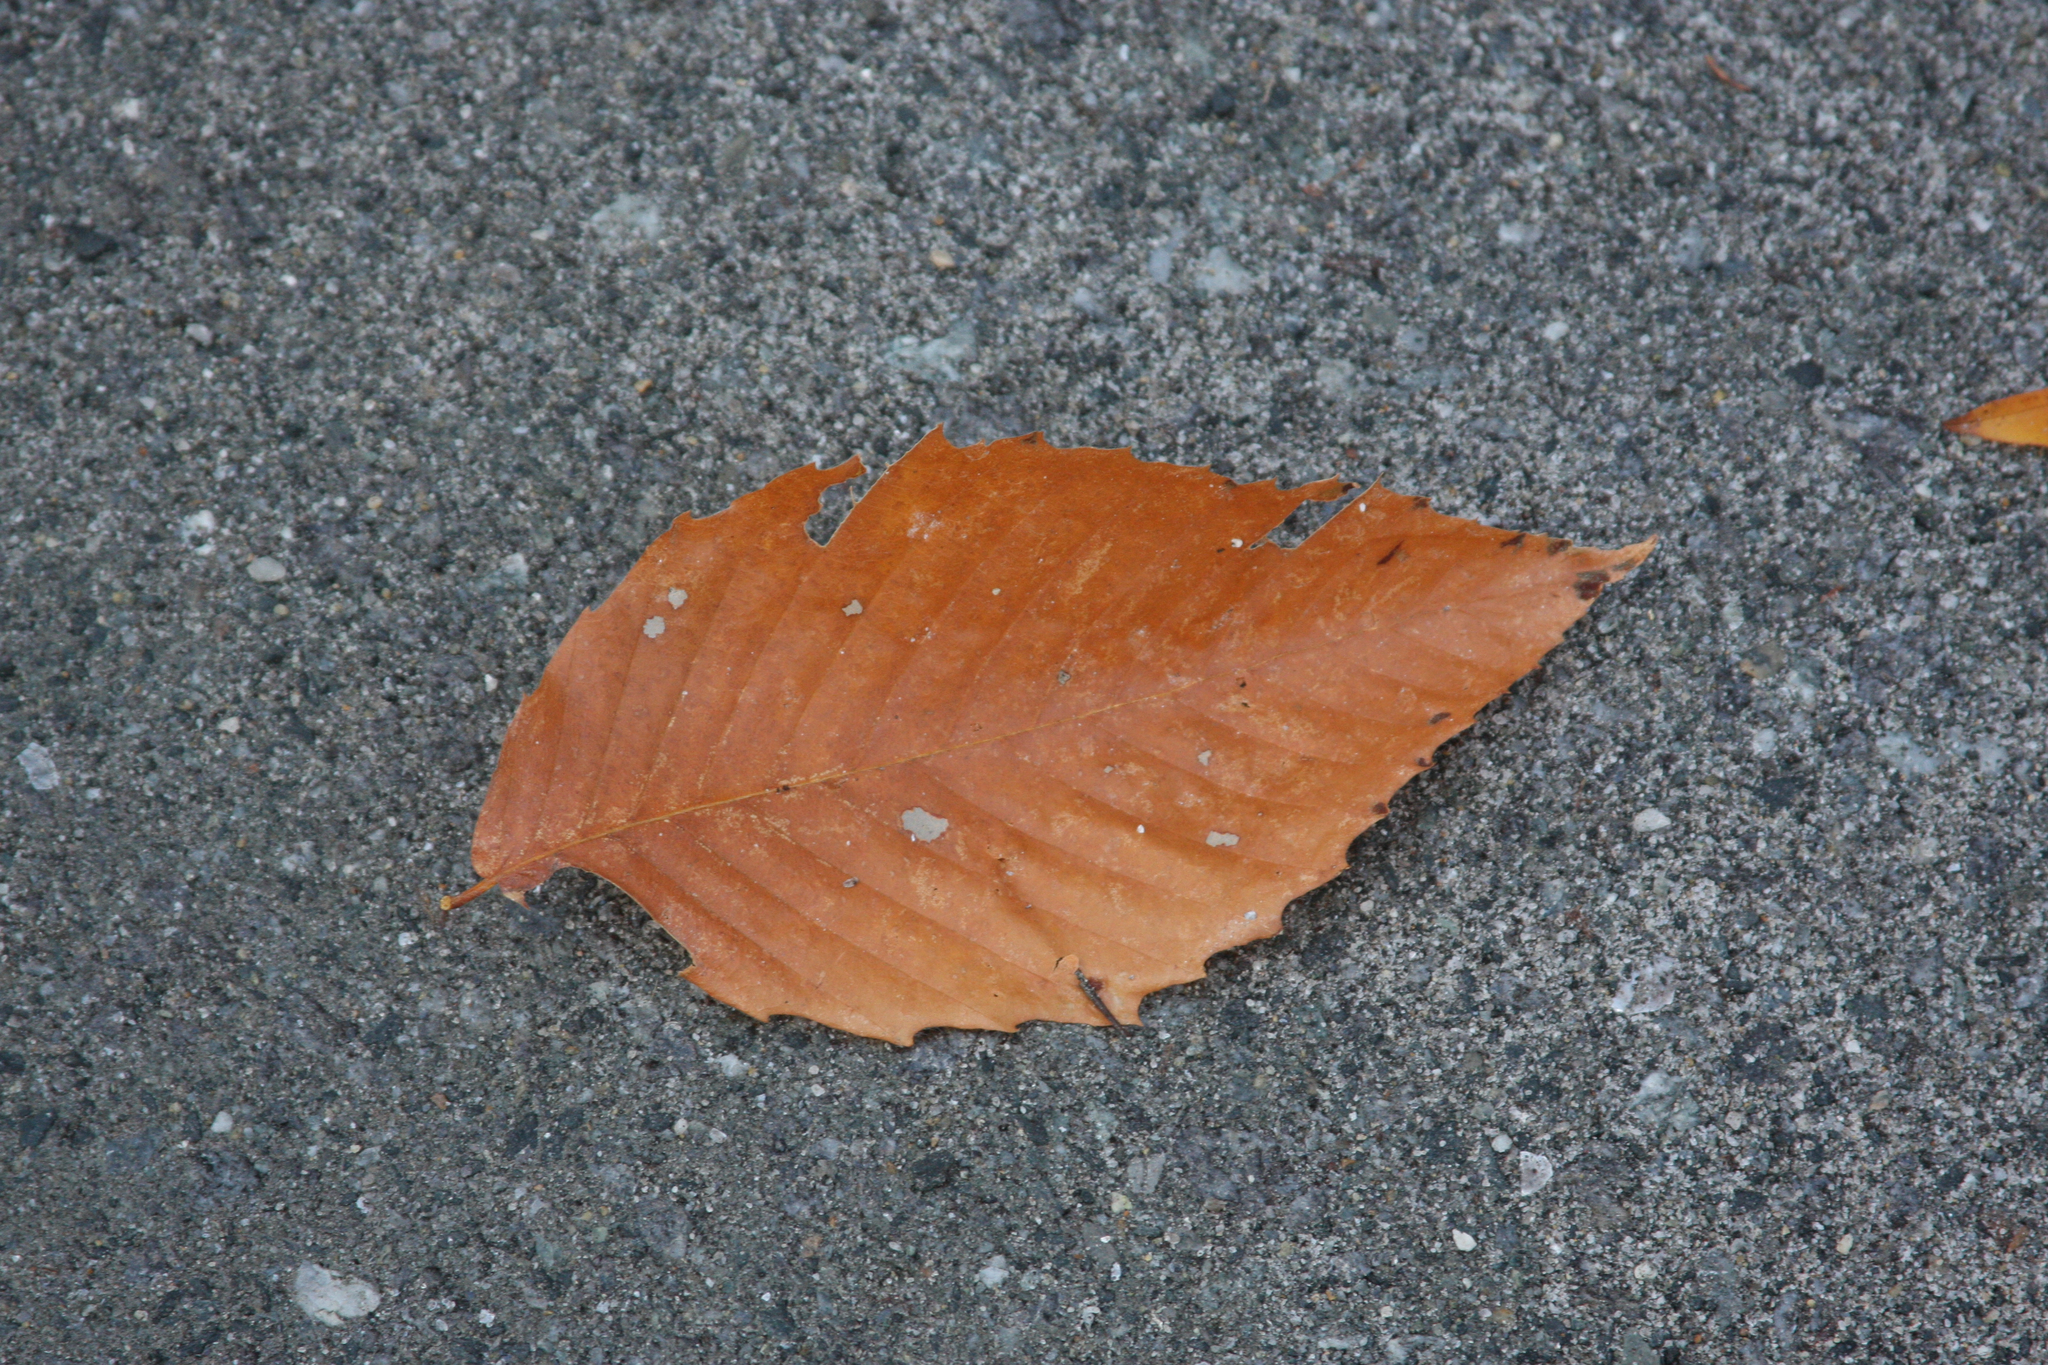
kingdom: Plantae
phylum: Tracheophyta
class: Magnoliopsida
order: Fagales
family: Fagaceae
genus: Fagus
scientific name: Fagus grandifolia
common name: American beech
